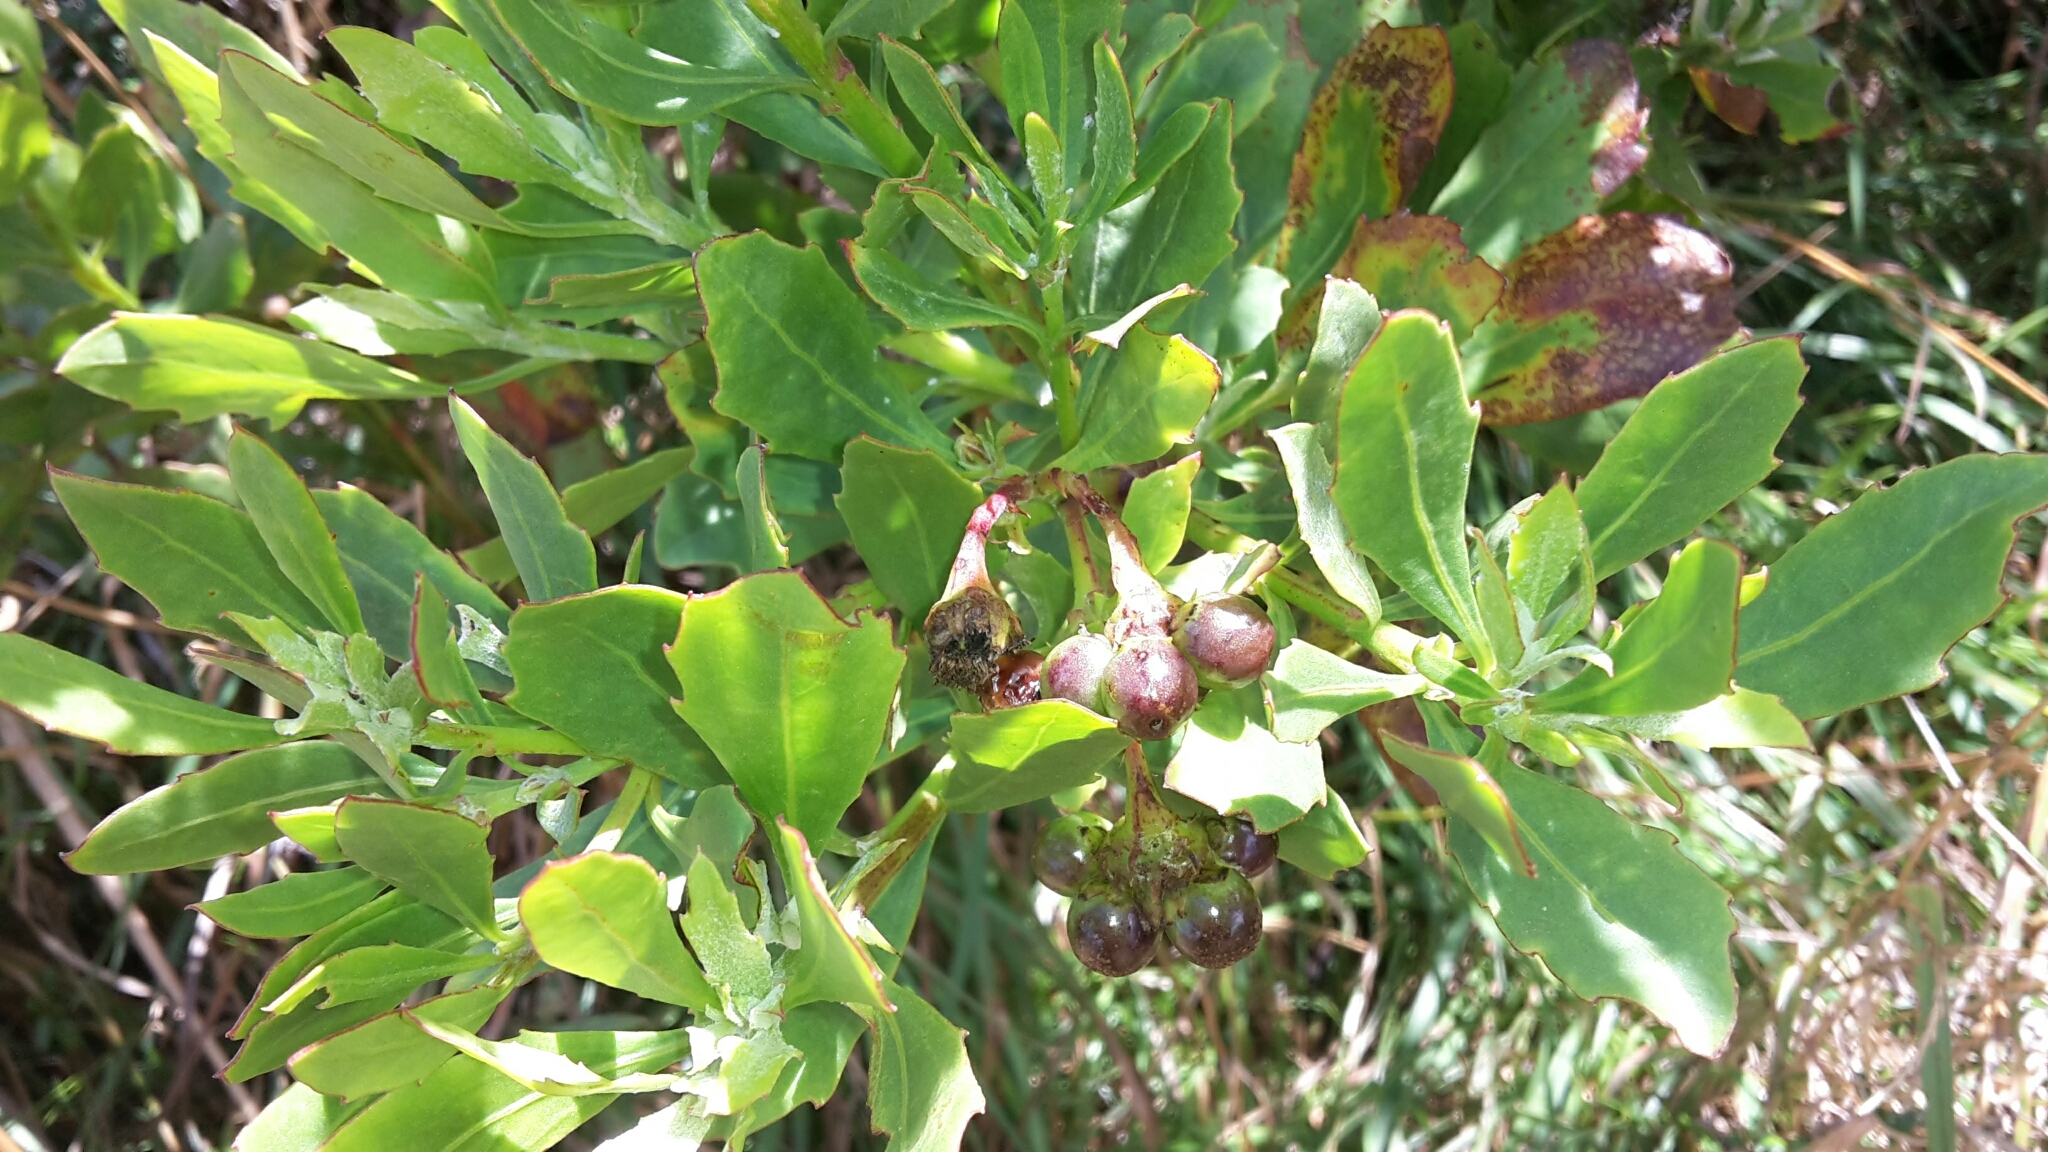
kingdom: Plantae
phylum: Tracheophyta
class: Magnoliopsida
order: Asterales
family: Asteraceae
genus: Osteospermum
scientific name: Osteospermum moniliferum
